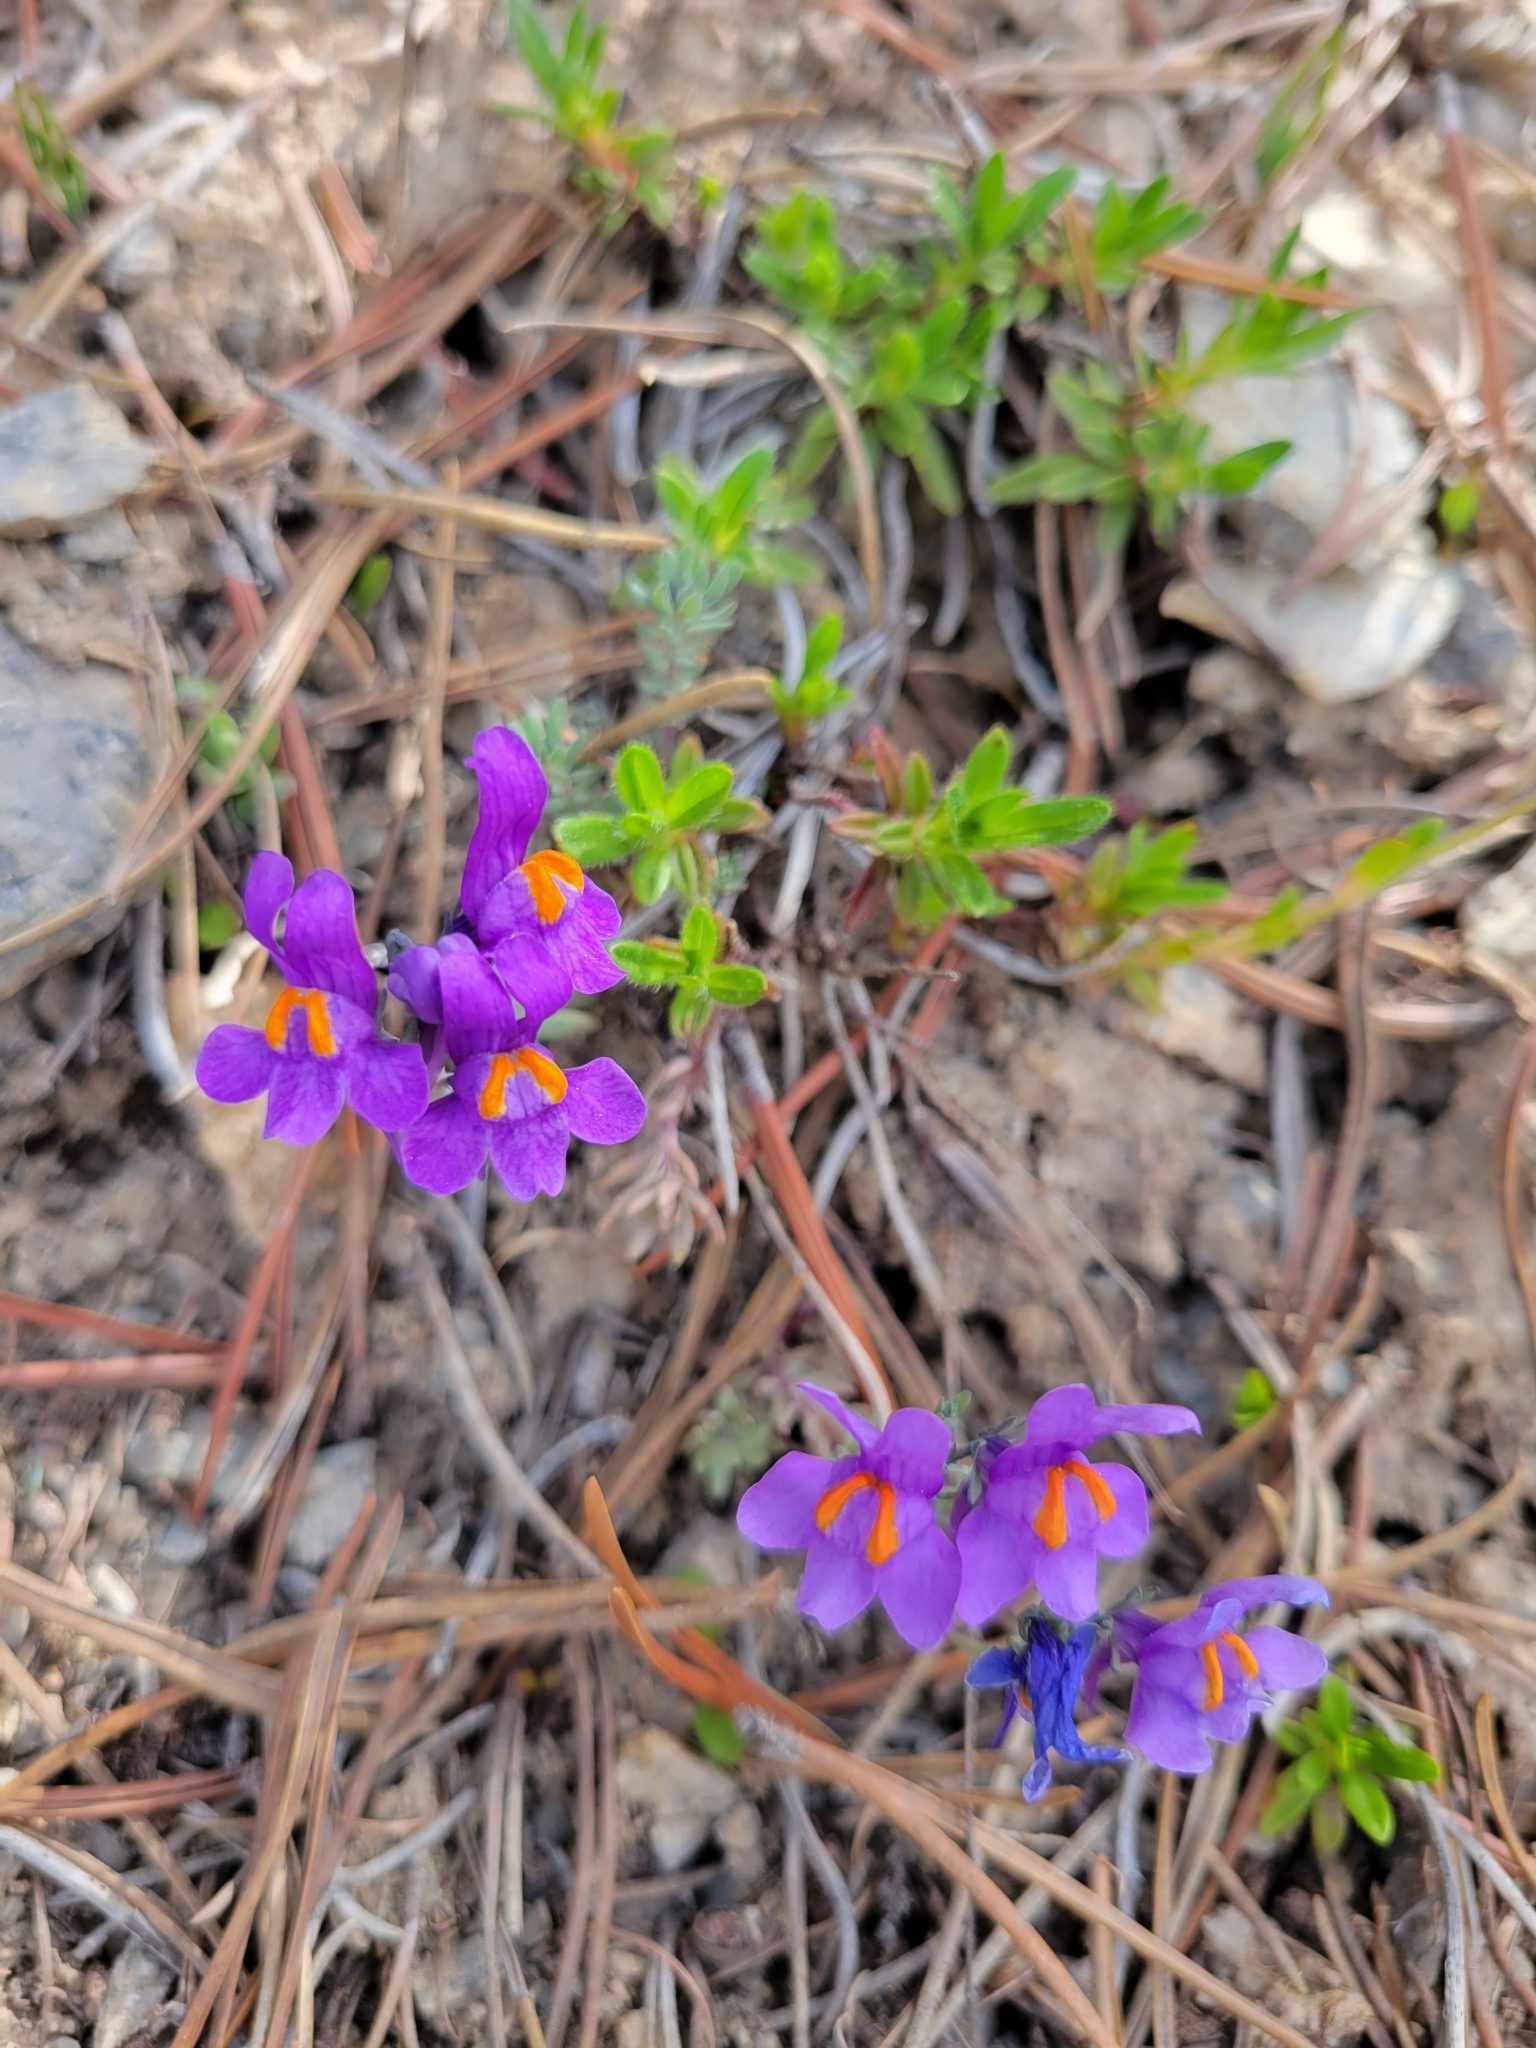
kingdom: Plantae
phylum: Tracheophyta
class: Magnoliopsida
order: Lamiales
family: Plantaginaceae
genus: Linaria
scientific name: Linaria alpina
